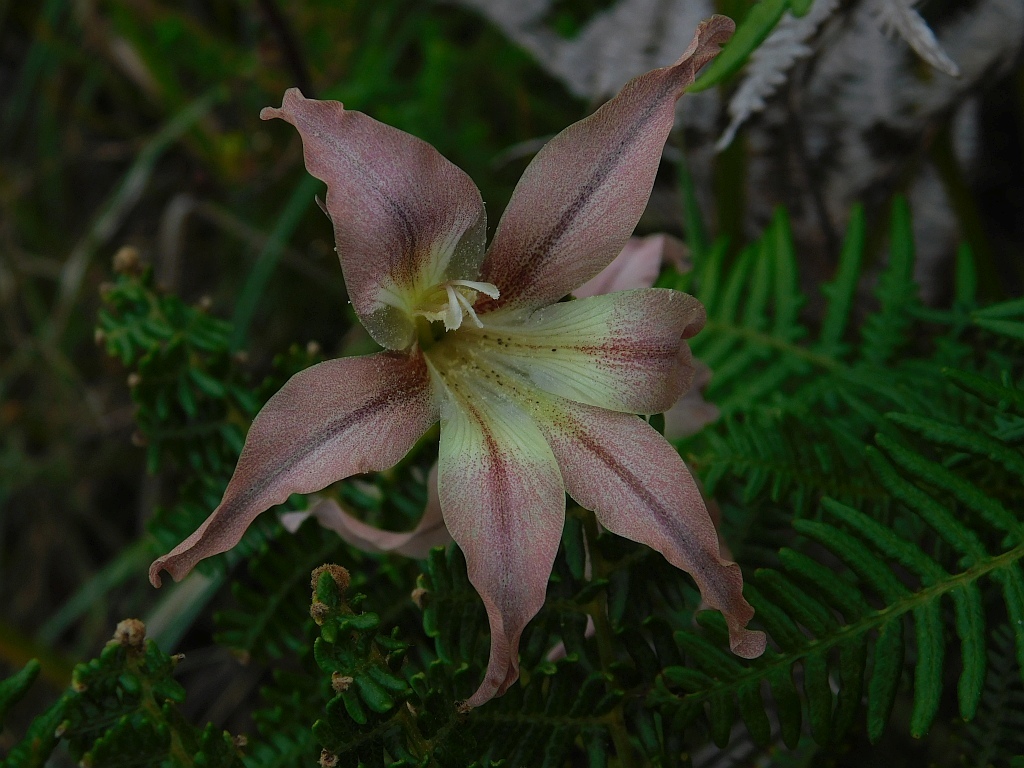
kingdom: Plantae
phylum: Tracheophyta
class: Liliopsida
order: Asparagales
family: Iridaceae
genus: Gladiolus
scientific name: Gladiolus liliaceus
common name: Large brown afrikaner
